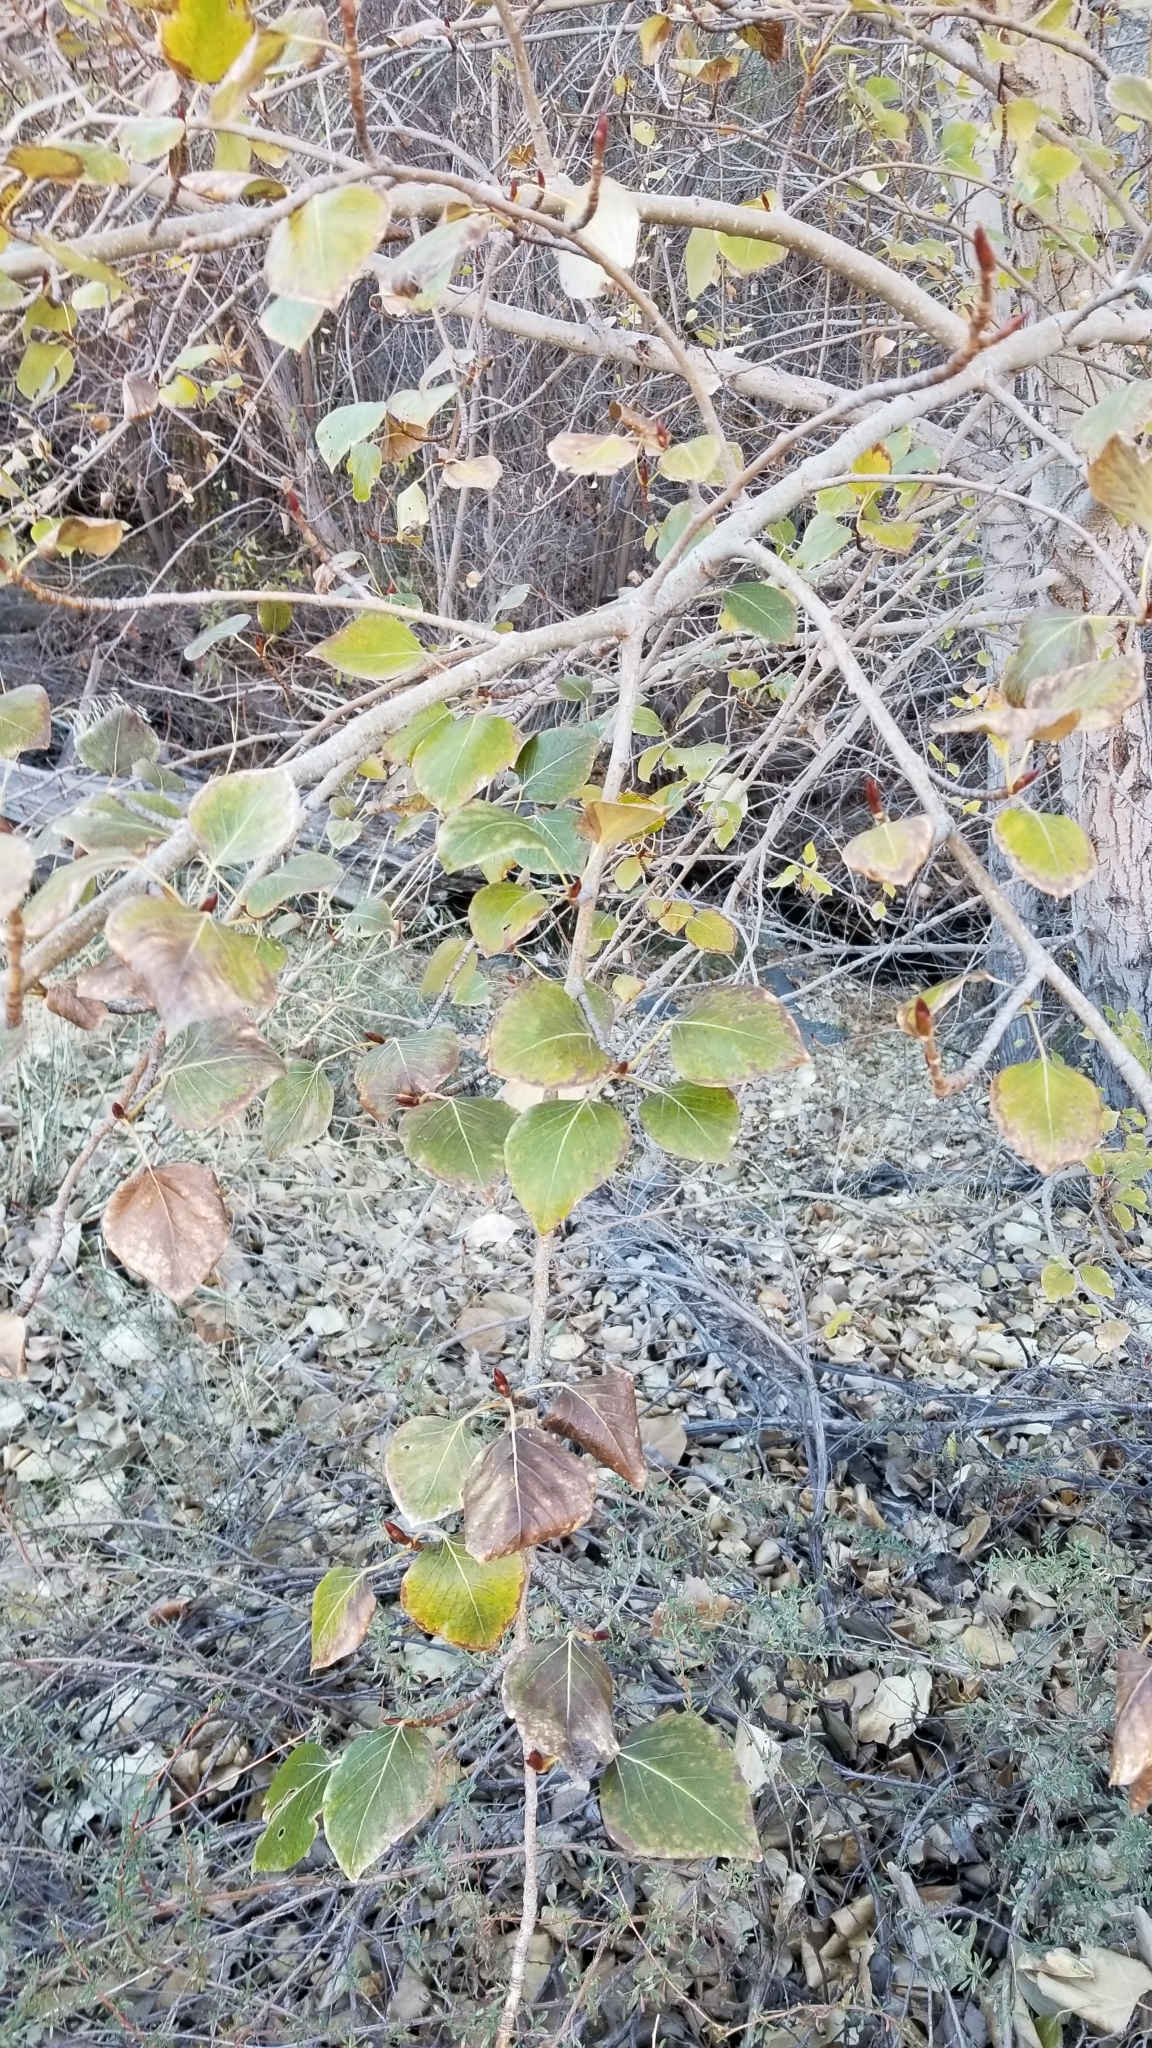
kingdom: Plantae
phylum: Tracheophyta
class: Magnoliopsida
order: Malpighiales
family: Salicaceae
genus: Populus
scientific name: Populus fremontii
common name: Fremont's cottonwood
